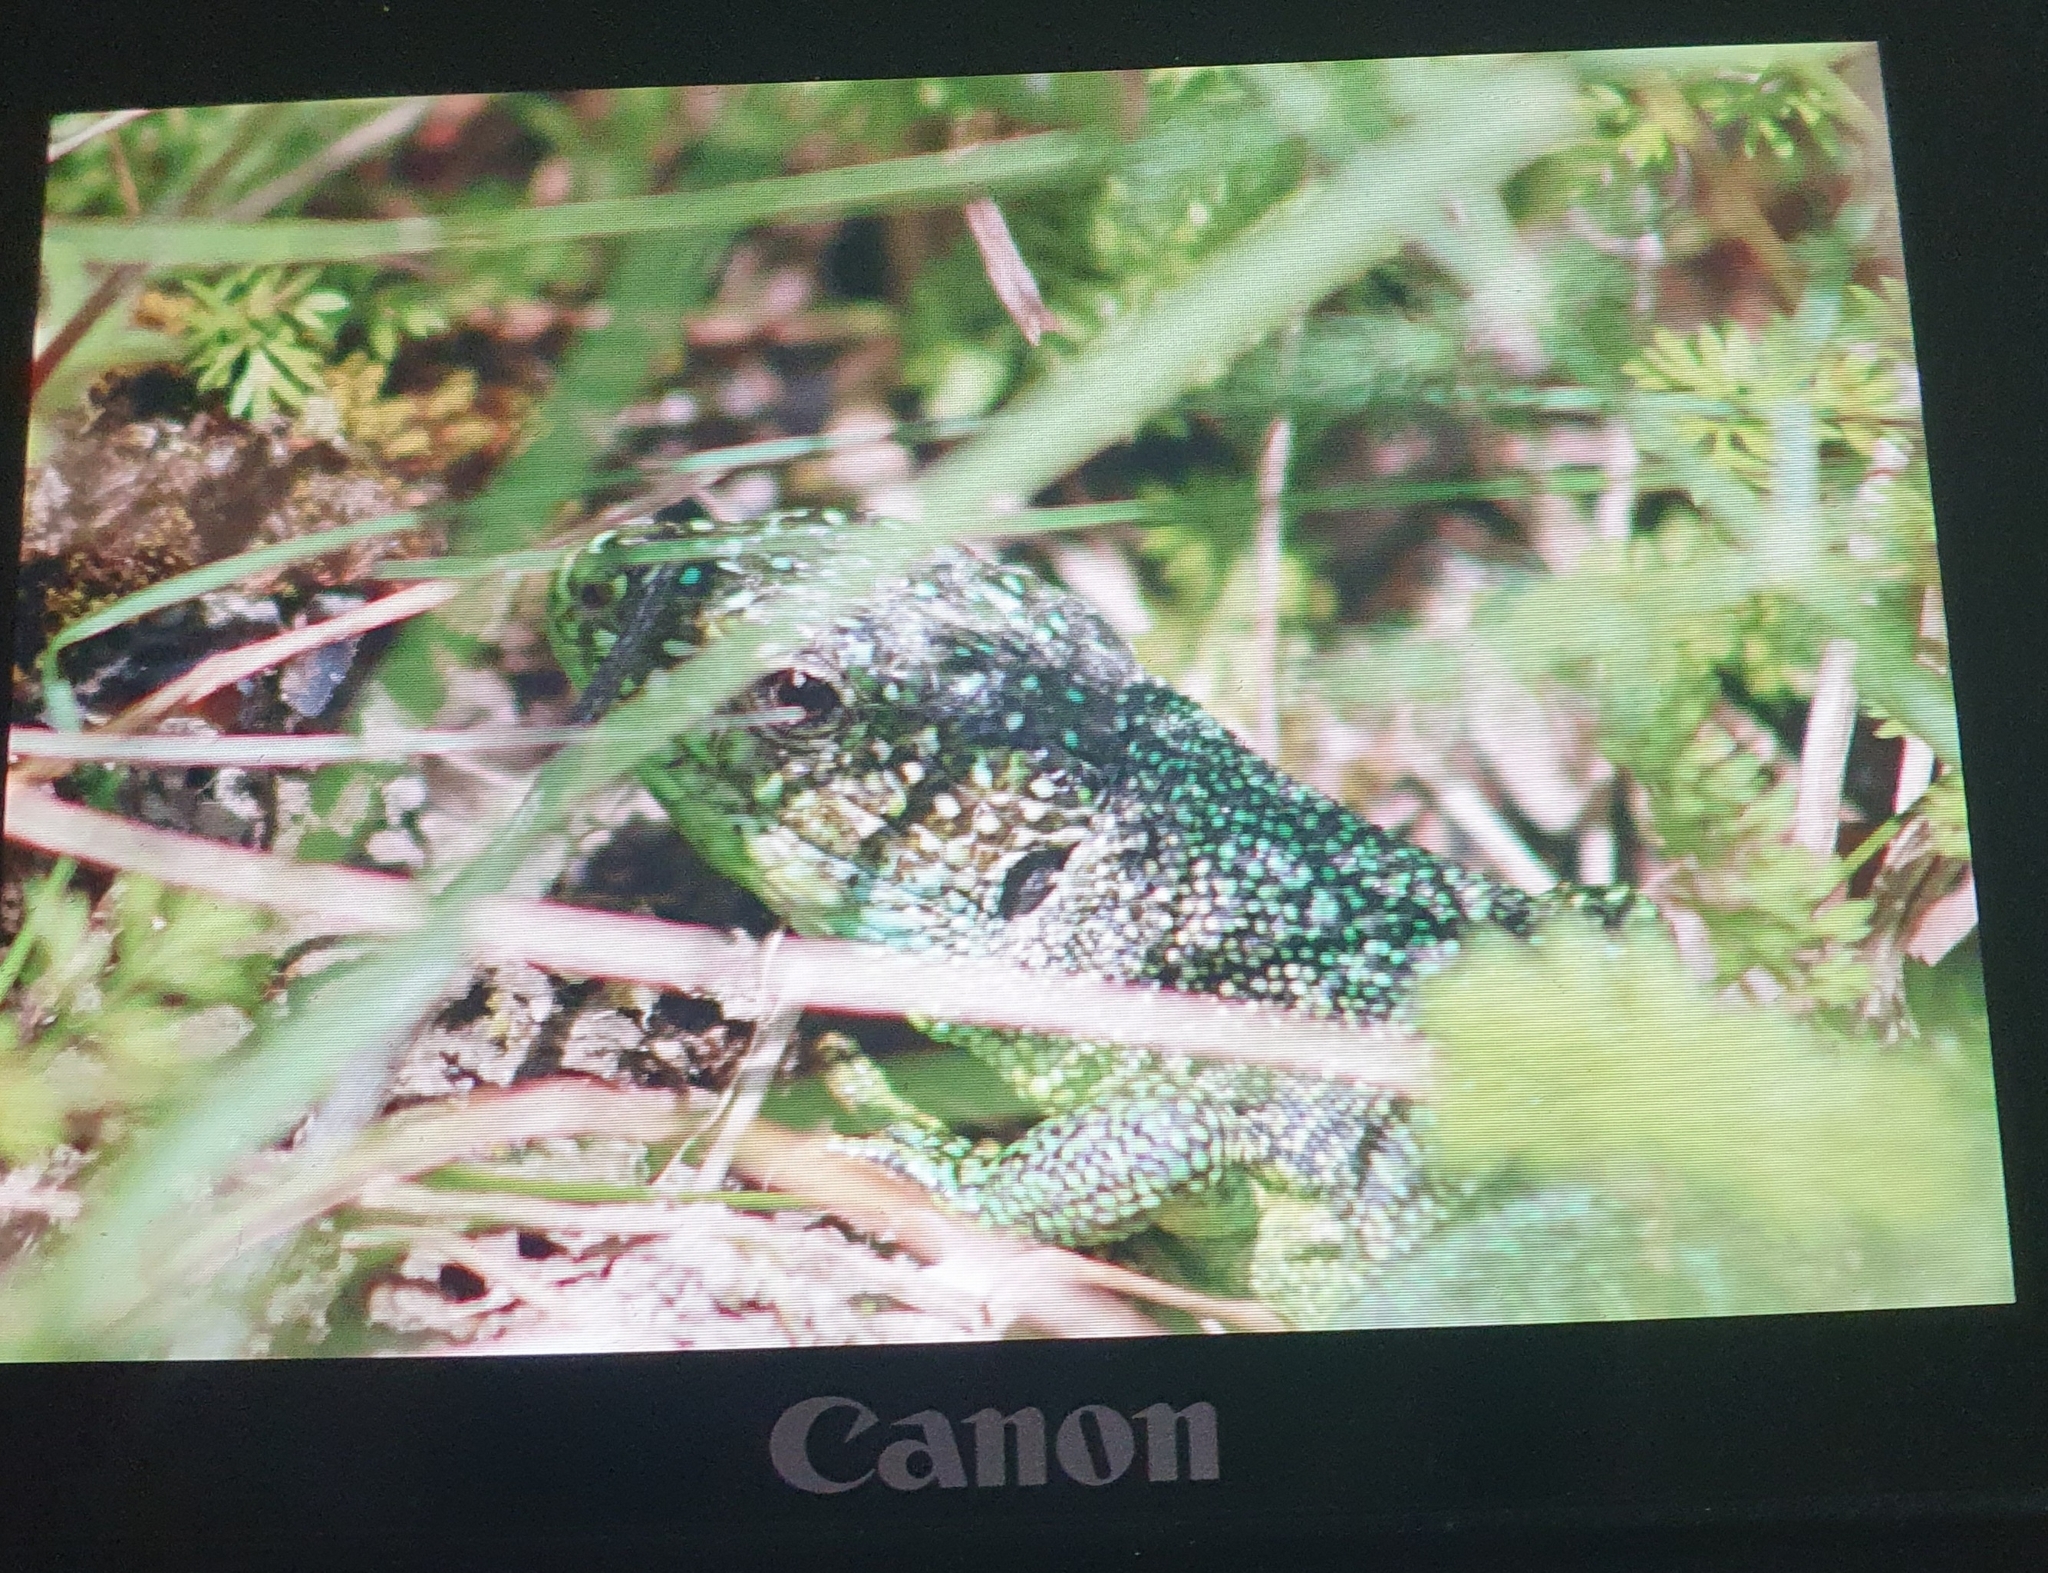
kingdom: Animalia
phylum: Chordata
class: Squamata
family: Lacertidae
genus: Lacerta
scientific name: Lacerta bilineata
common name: Western green lizard
